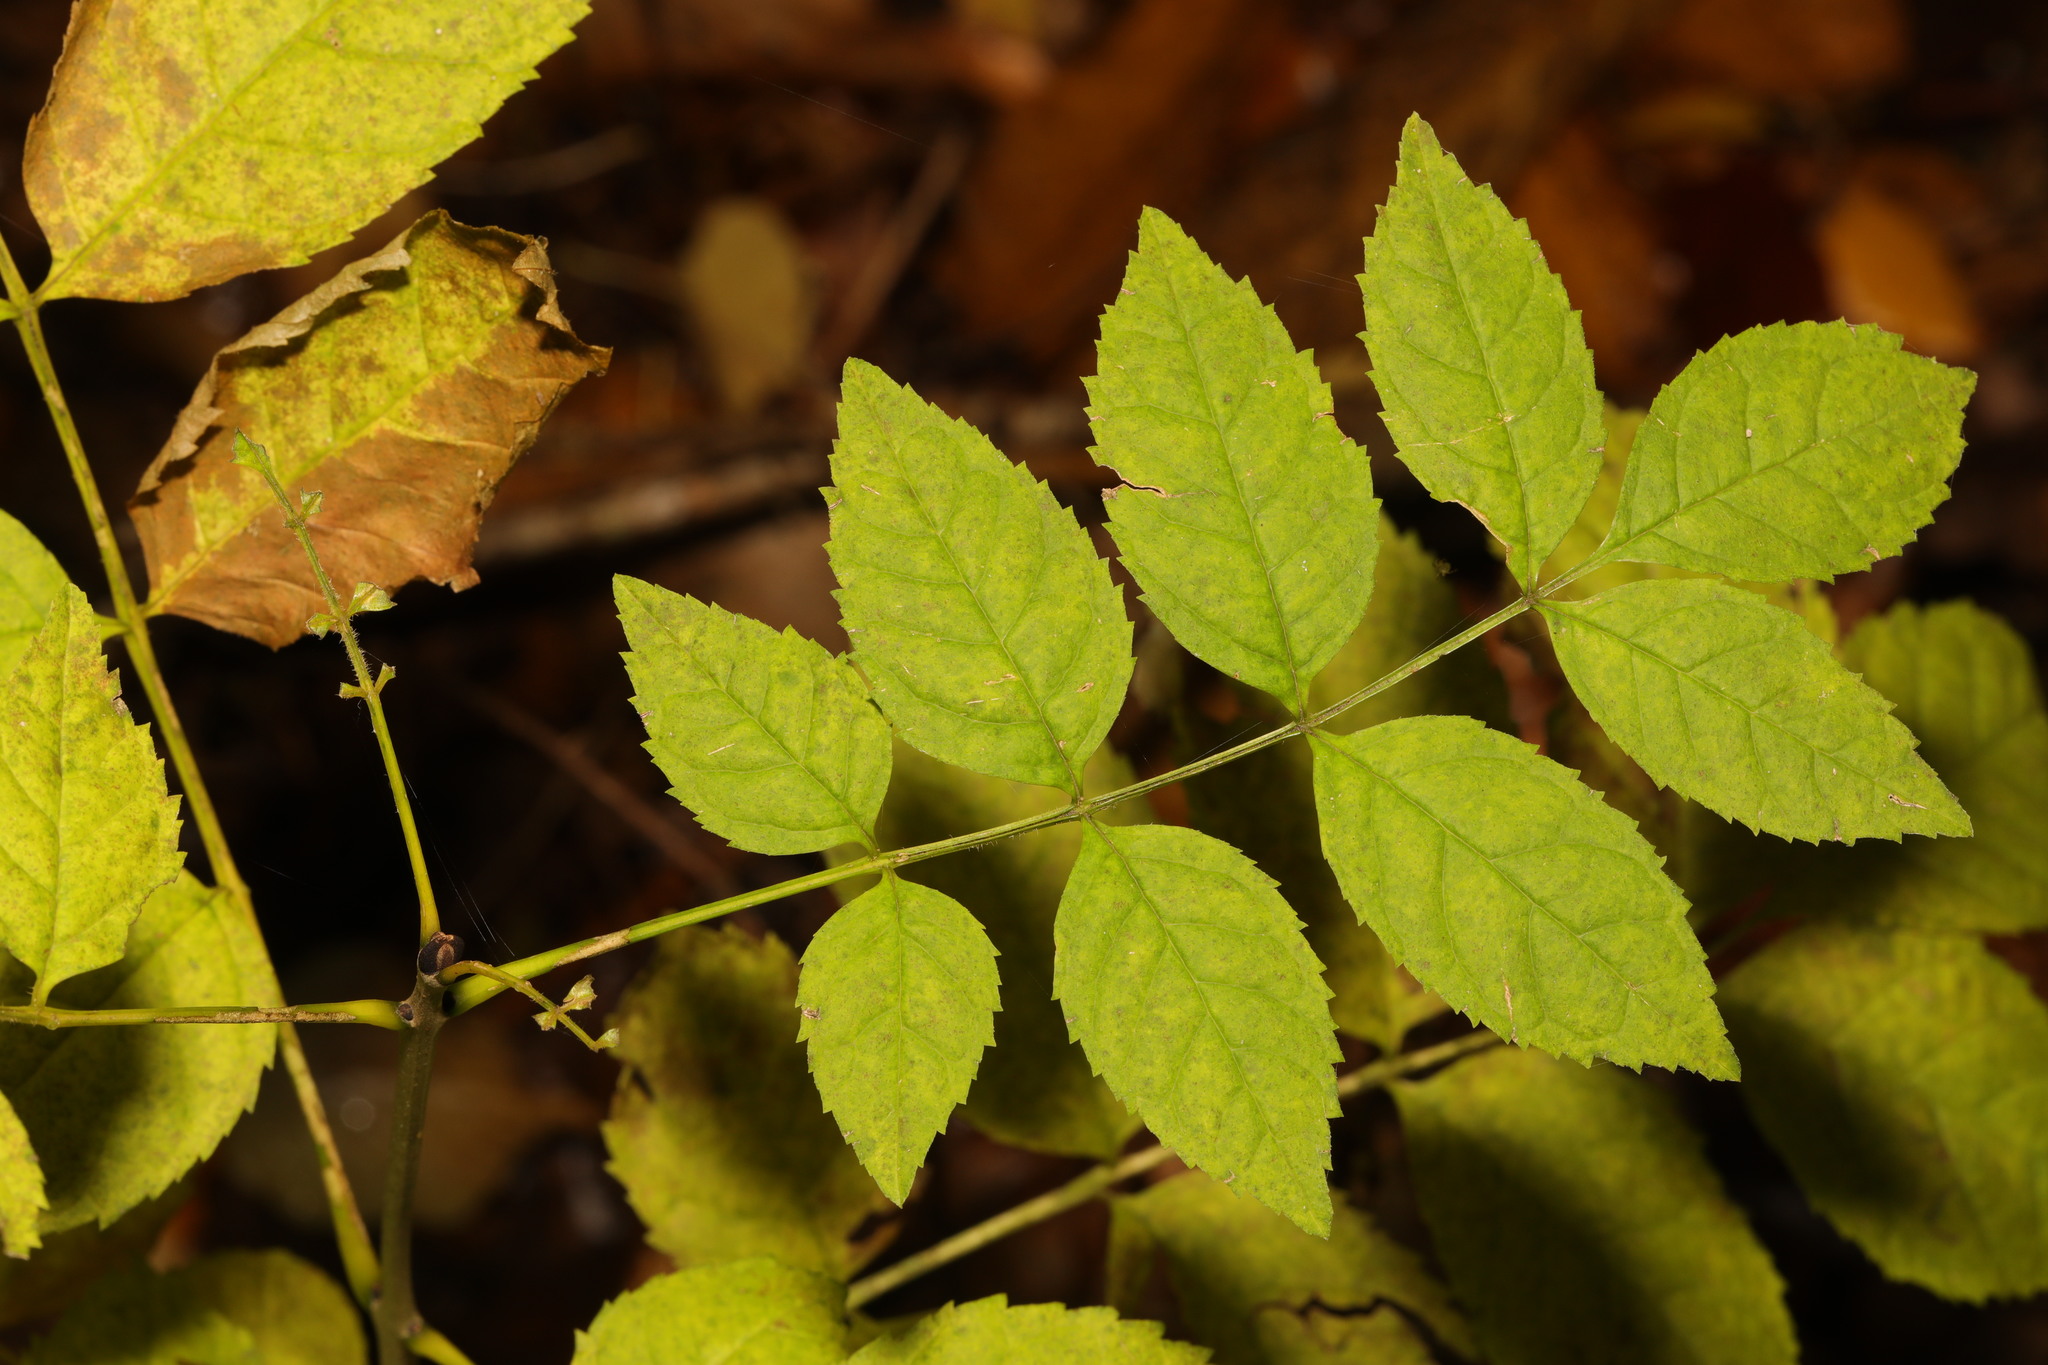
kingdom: Plantae
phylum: Tracheophyta
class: Magnoliopsida
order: Lamiales
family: Oleaceae
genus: Fraxinus
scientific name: Fraxinus excelsior
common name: European ash
